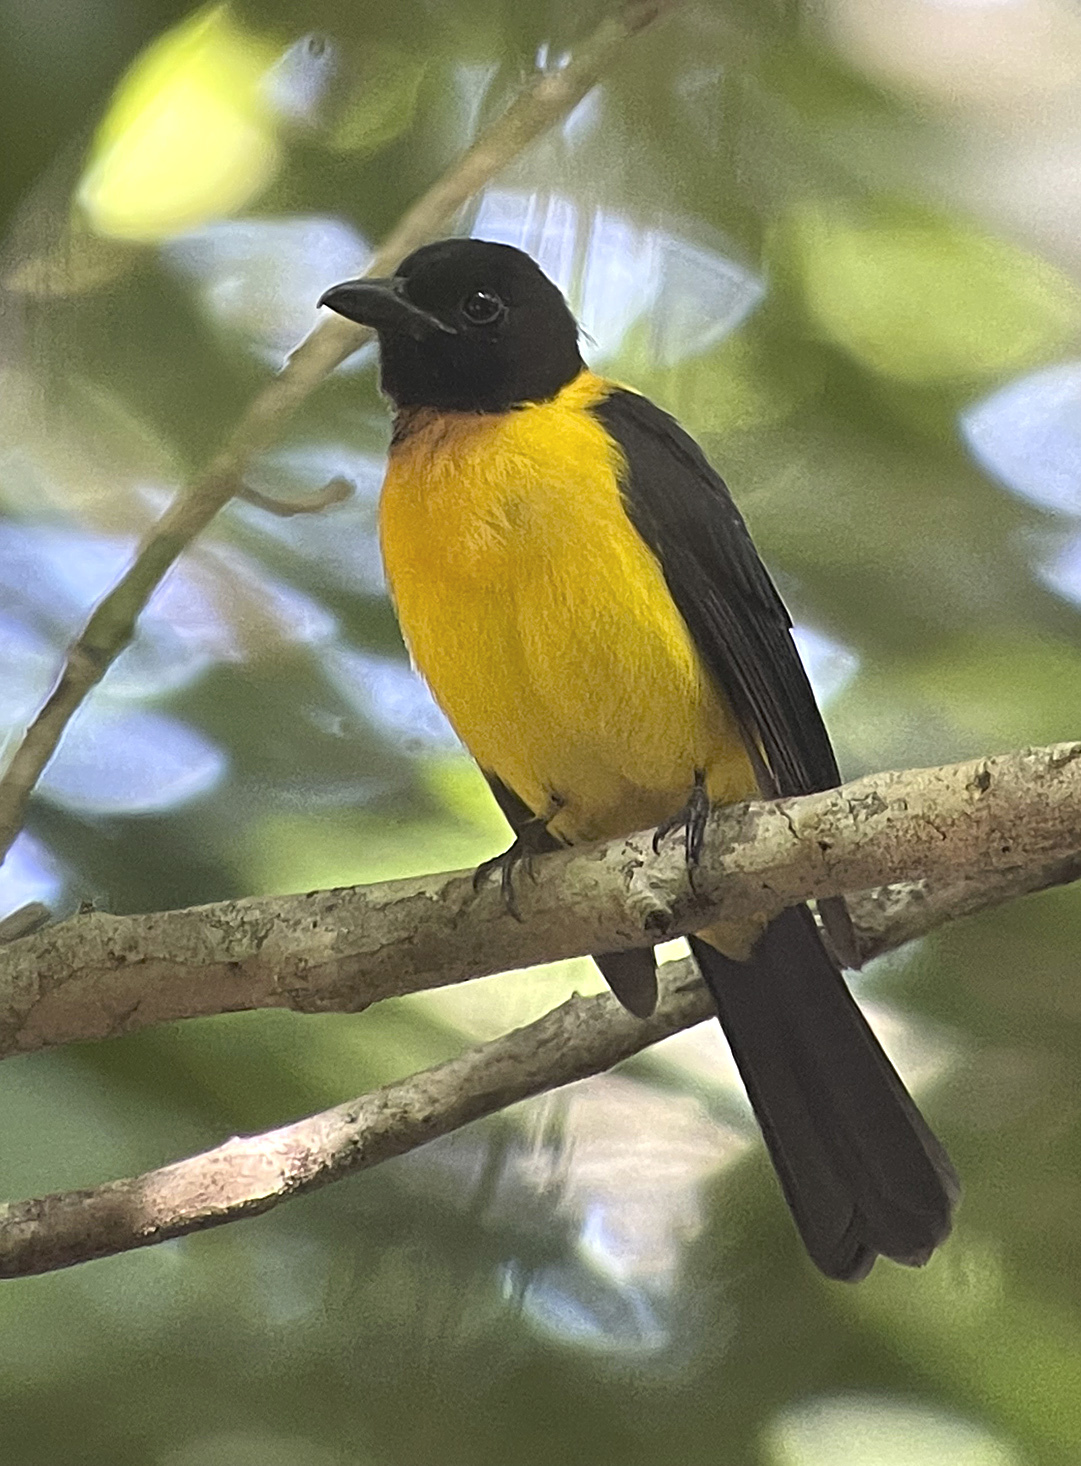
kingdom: Animalia
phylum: Chordata
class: Aves
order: Passeriformes
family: Thraupidae
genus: Lanio
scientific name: Lanio aurantius
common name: Black-throated shrike-tanager
